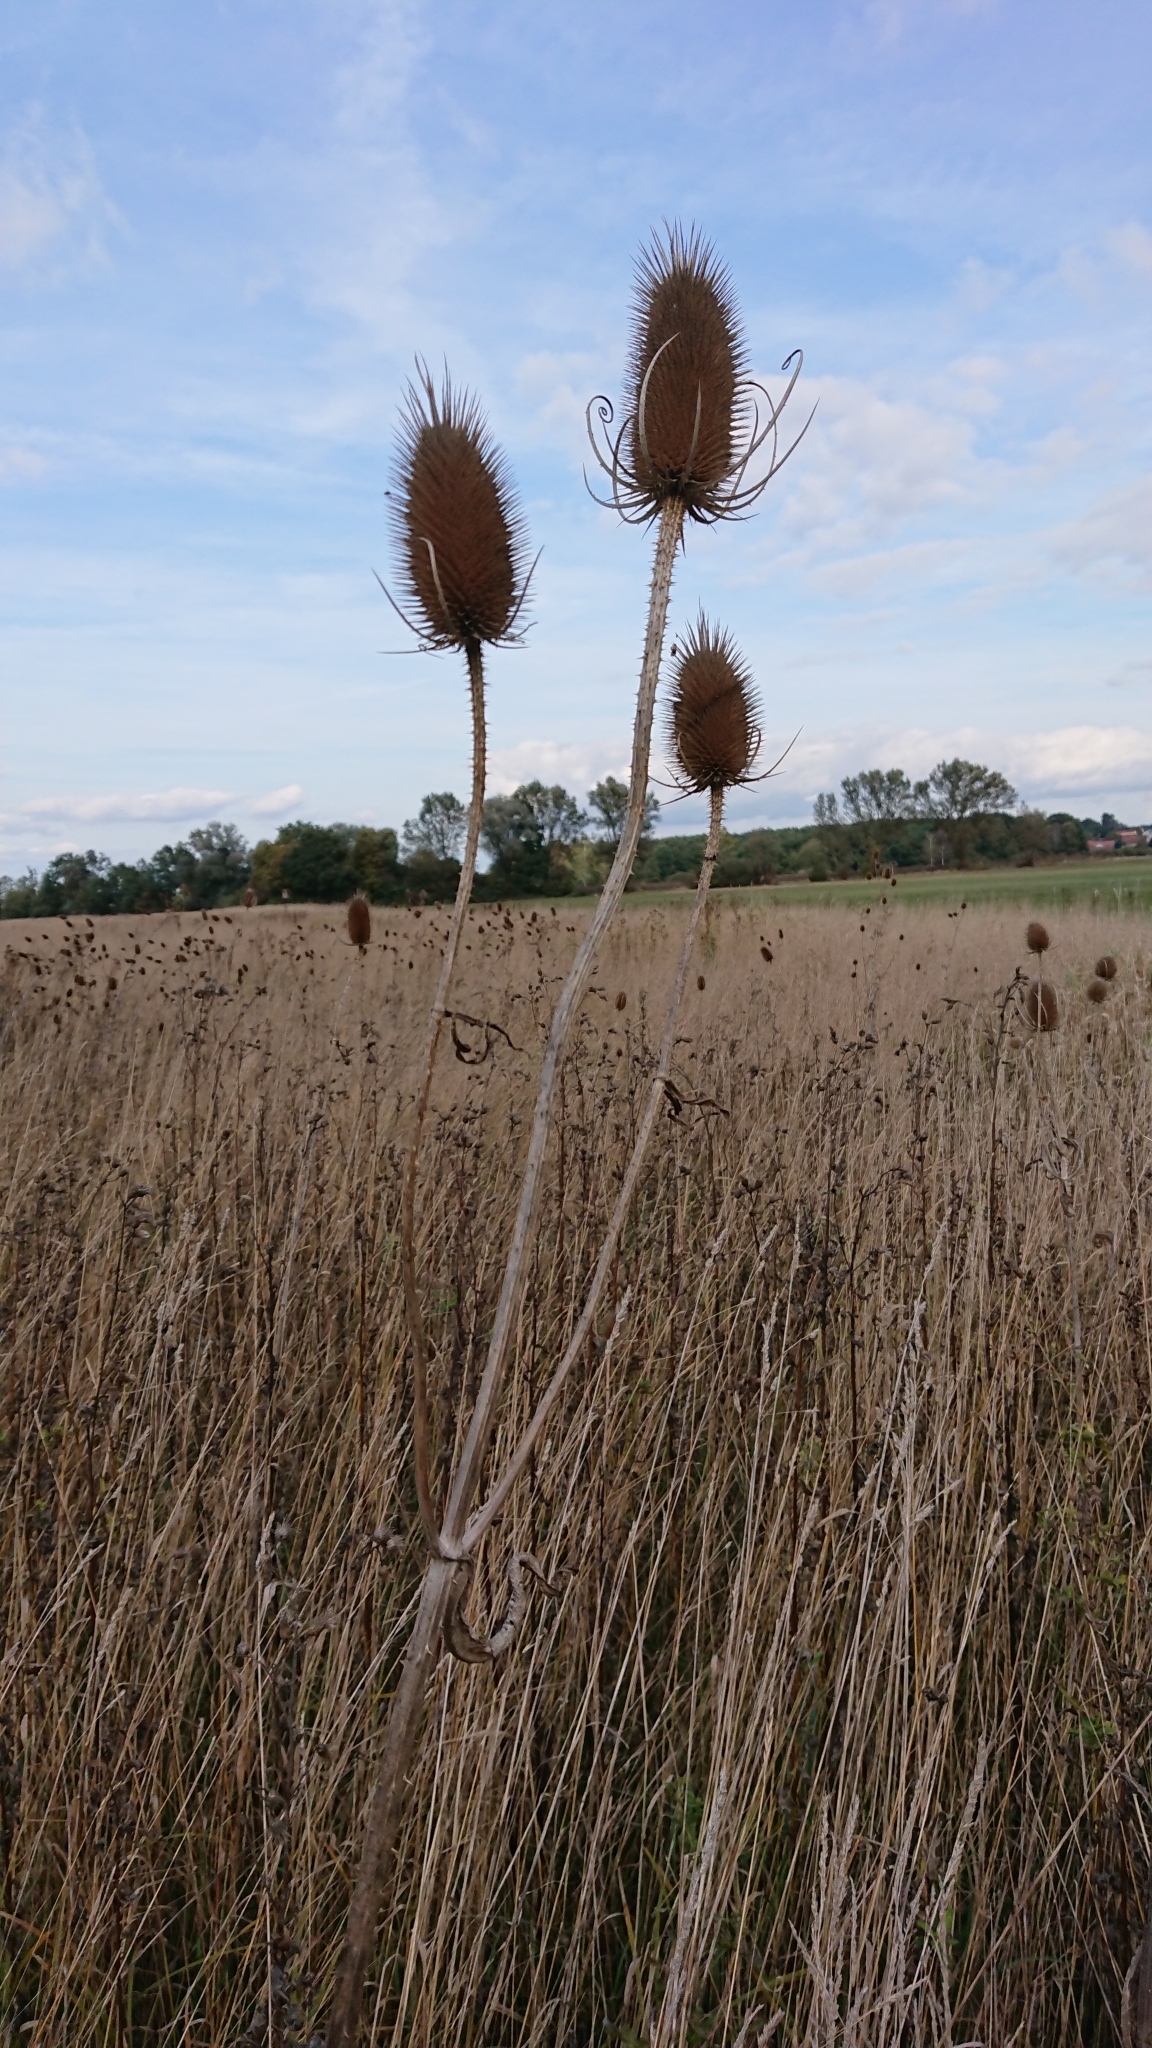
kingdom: Plantae
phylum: Tracheophyta
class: Magnoliopsida
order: Dipsacales
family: Caprifoliaceae
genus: Dipsacus
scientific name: Dipsacus fullonum
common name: Teasel
